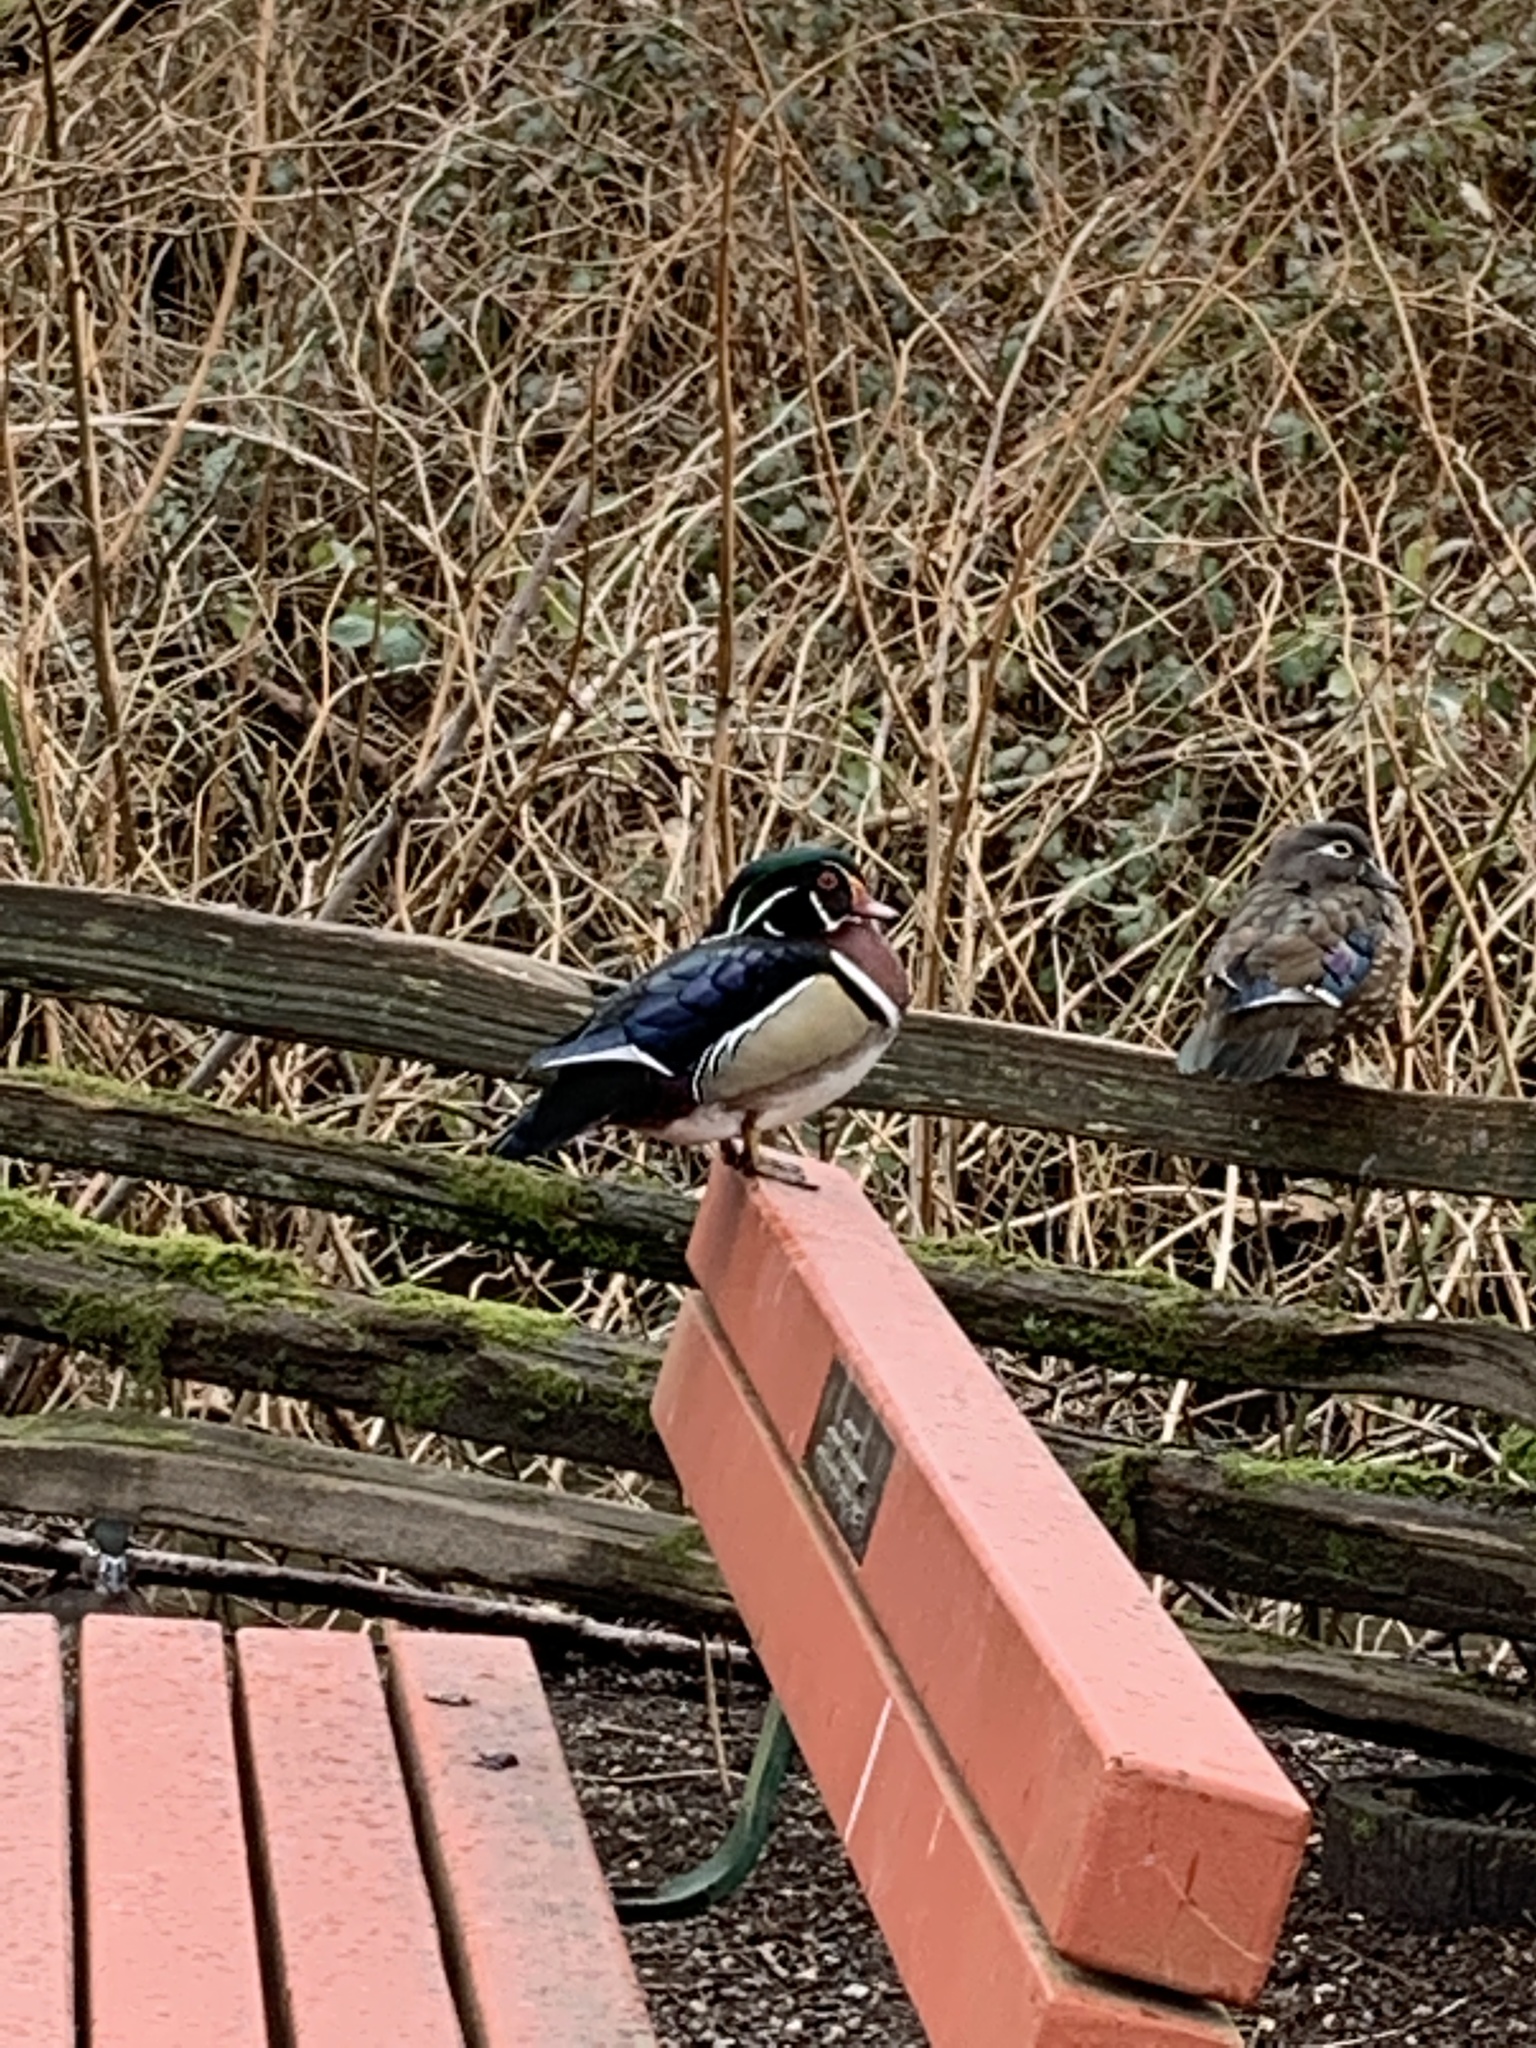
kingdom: Animalia
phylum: Chordata
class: Aves
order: Anseriformes
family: Anatidae
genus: Aix
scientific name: Aix sponsa
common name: Wood duck
